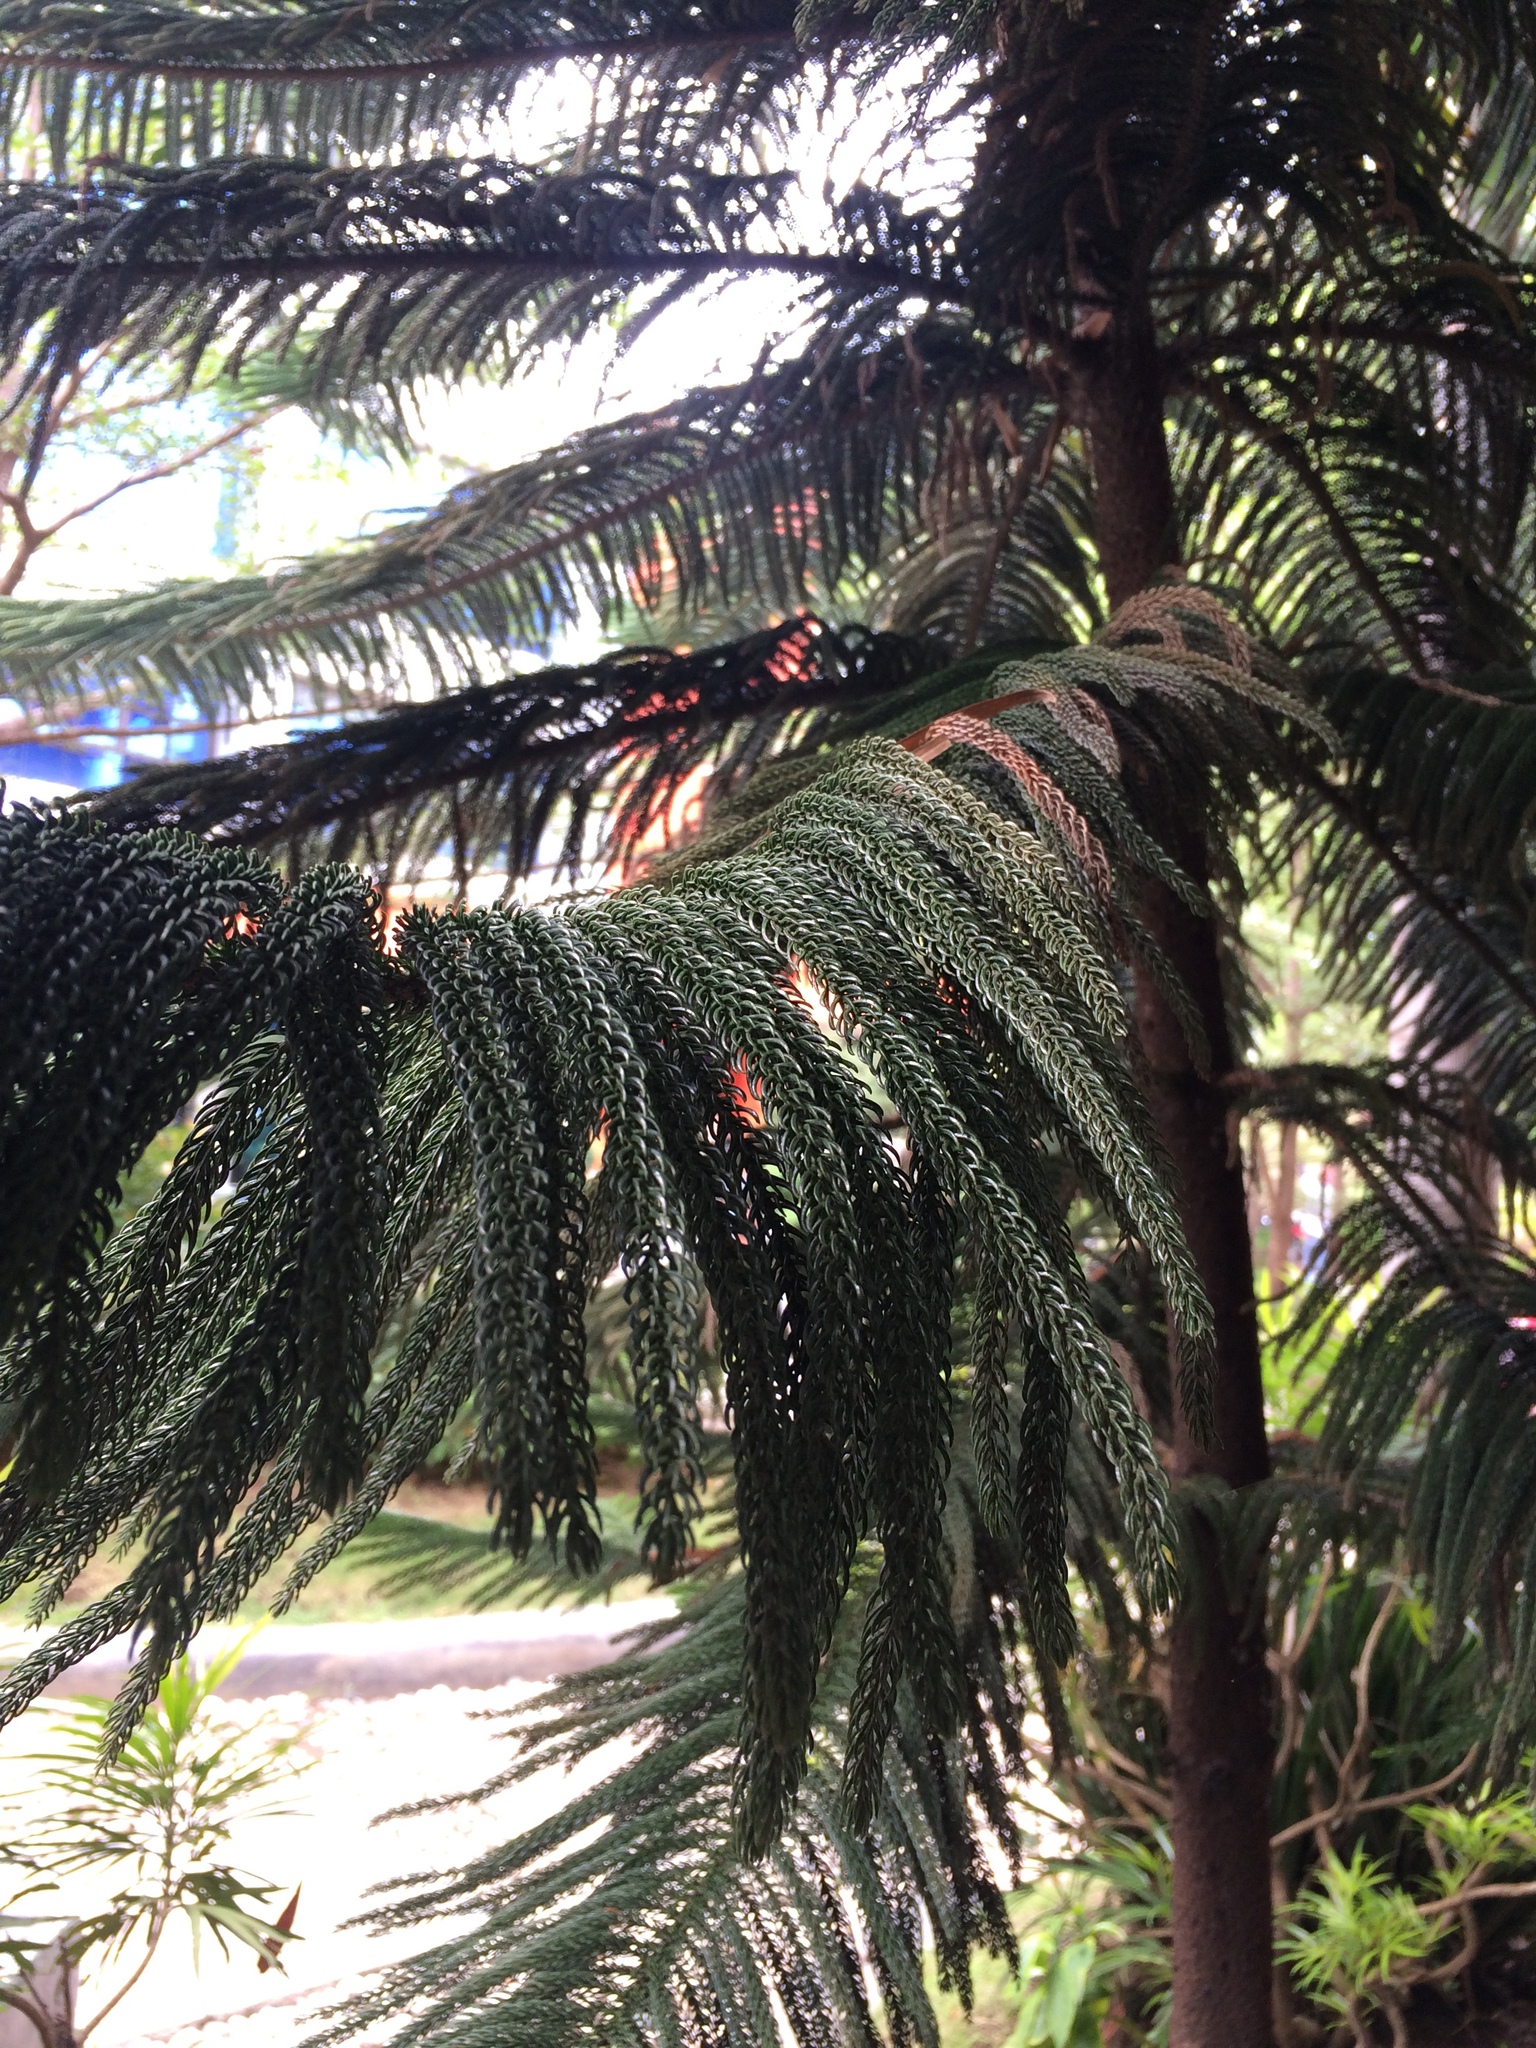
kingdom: Plantae
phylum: Tracheophyta
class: Pinopsida
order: Pinales
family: Araucariaceae
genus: Araucaria
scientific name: Araucaria heterophylla
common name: Norfolk island pine
